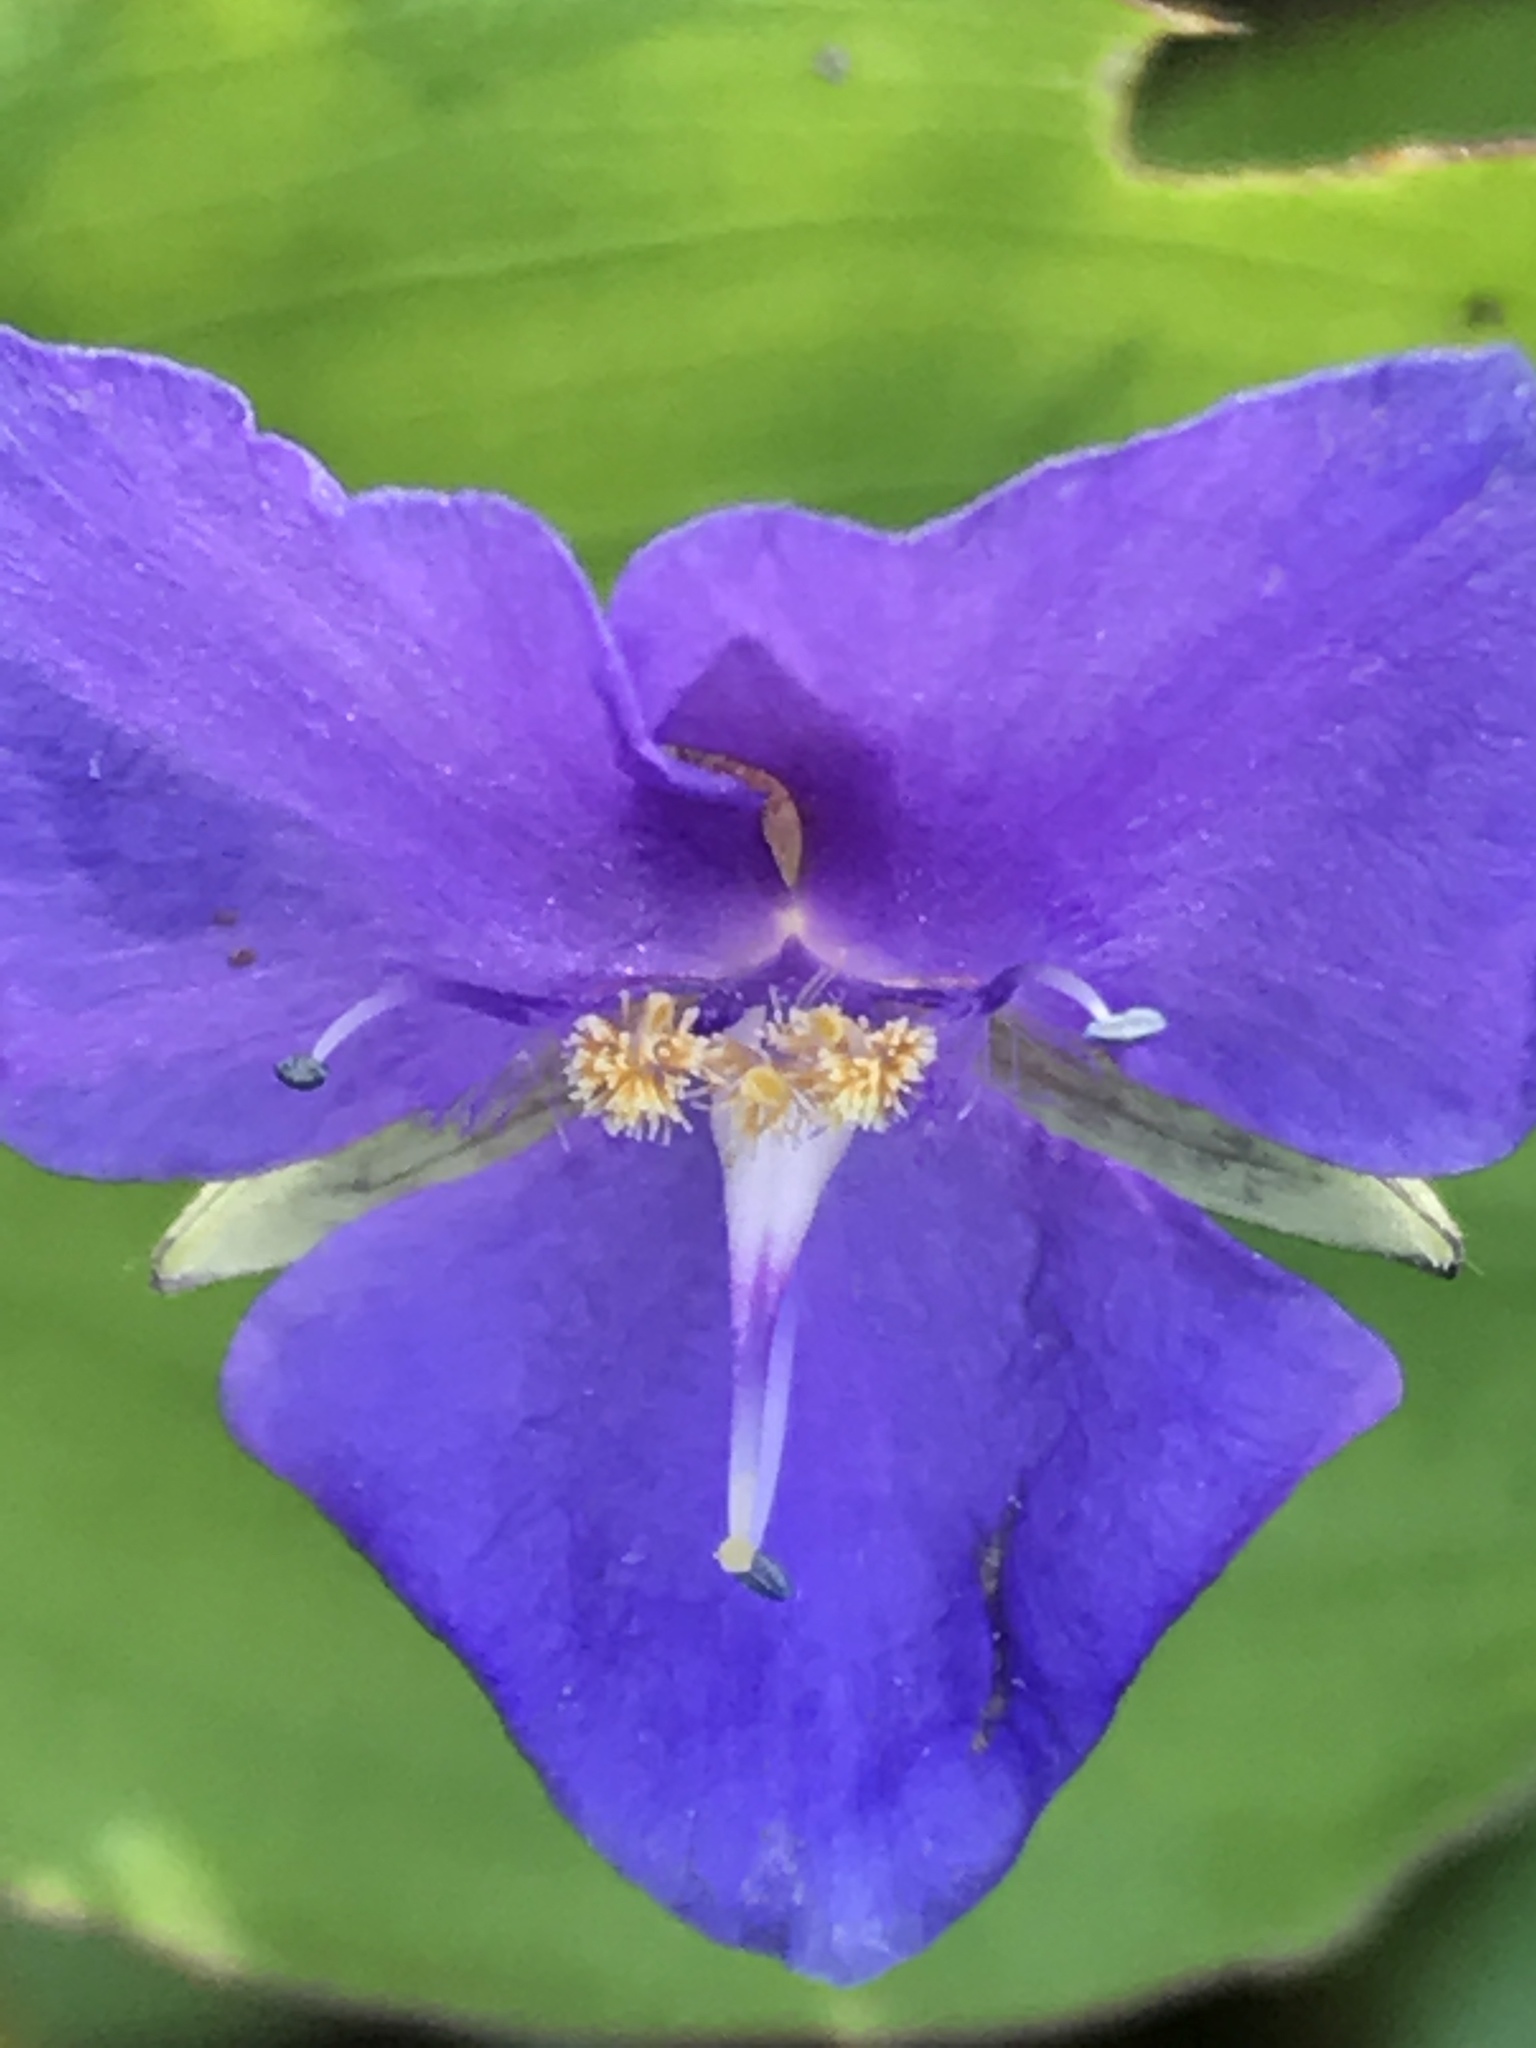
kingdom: Plantae
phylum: Tracheophyta
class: Liliopsida
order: Commelinales
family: Commelinaceae
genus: Tinantia
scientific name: Tinantia pringlei
